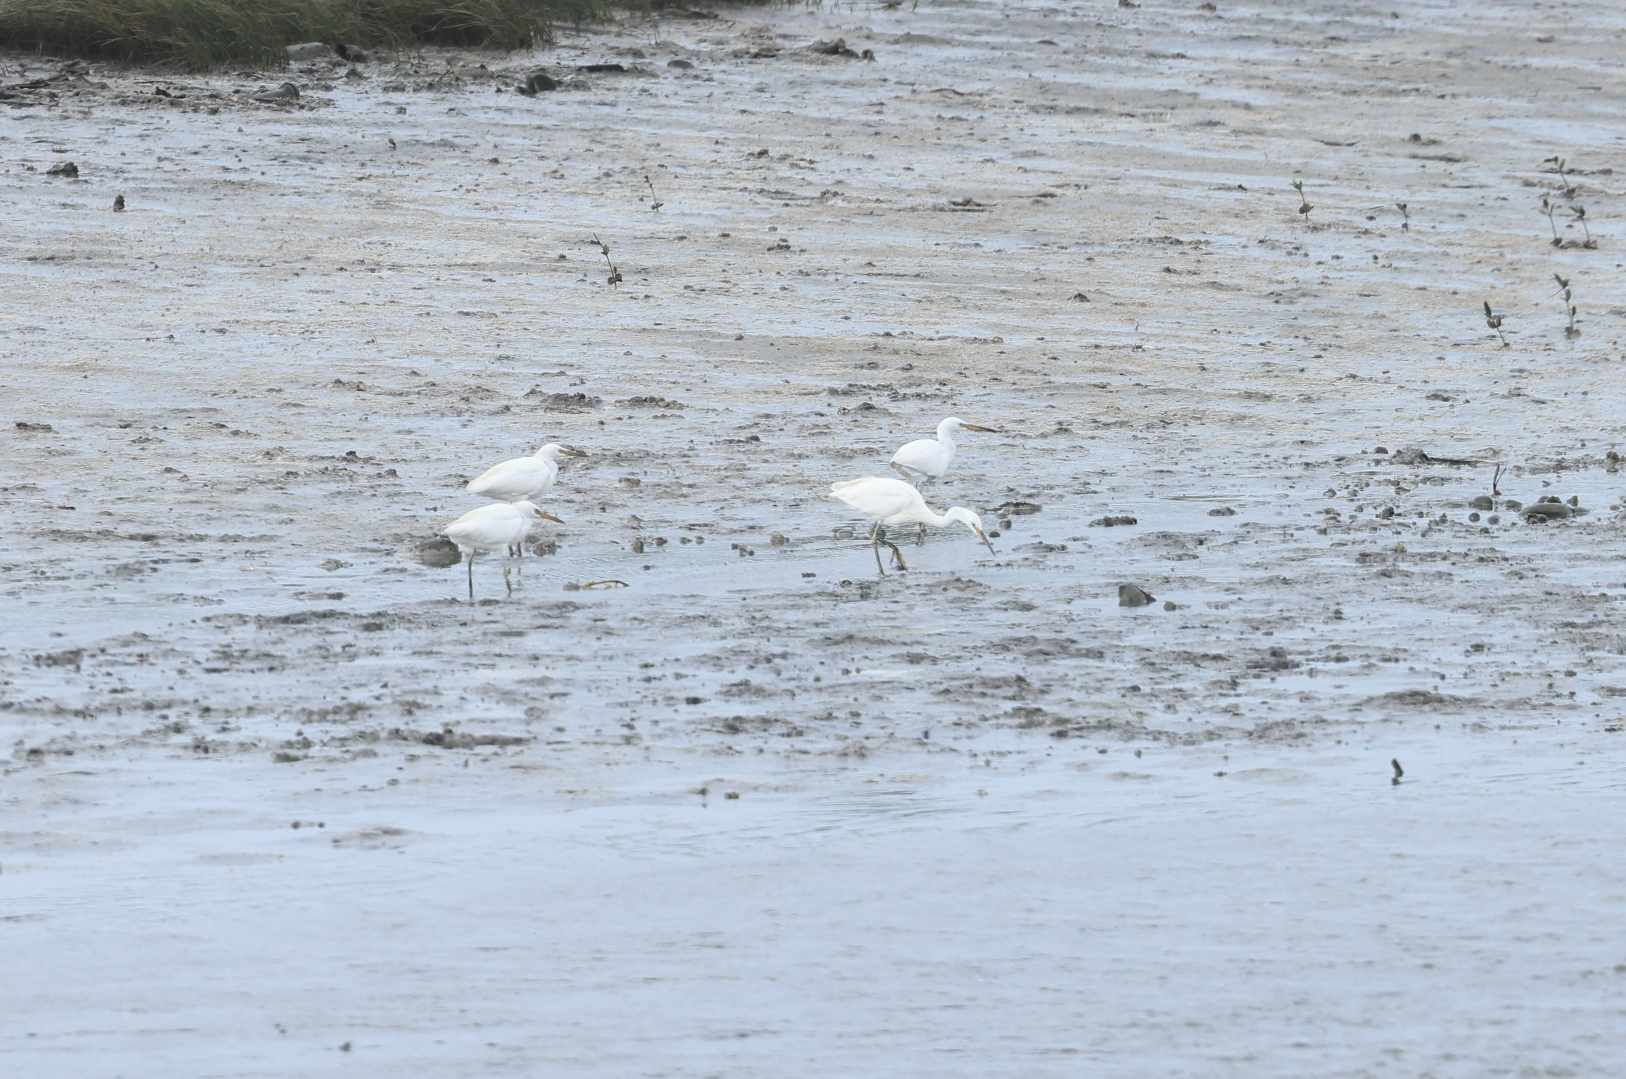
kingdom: Animalia
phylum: Chordata
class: Aves
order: Pelecaniformes
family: Ardeidae
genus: Egretta
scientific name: Egretta eulophotes
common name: Chinese egret
